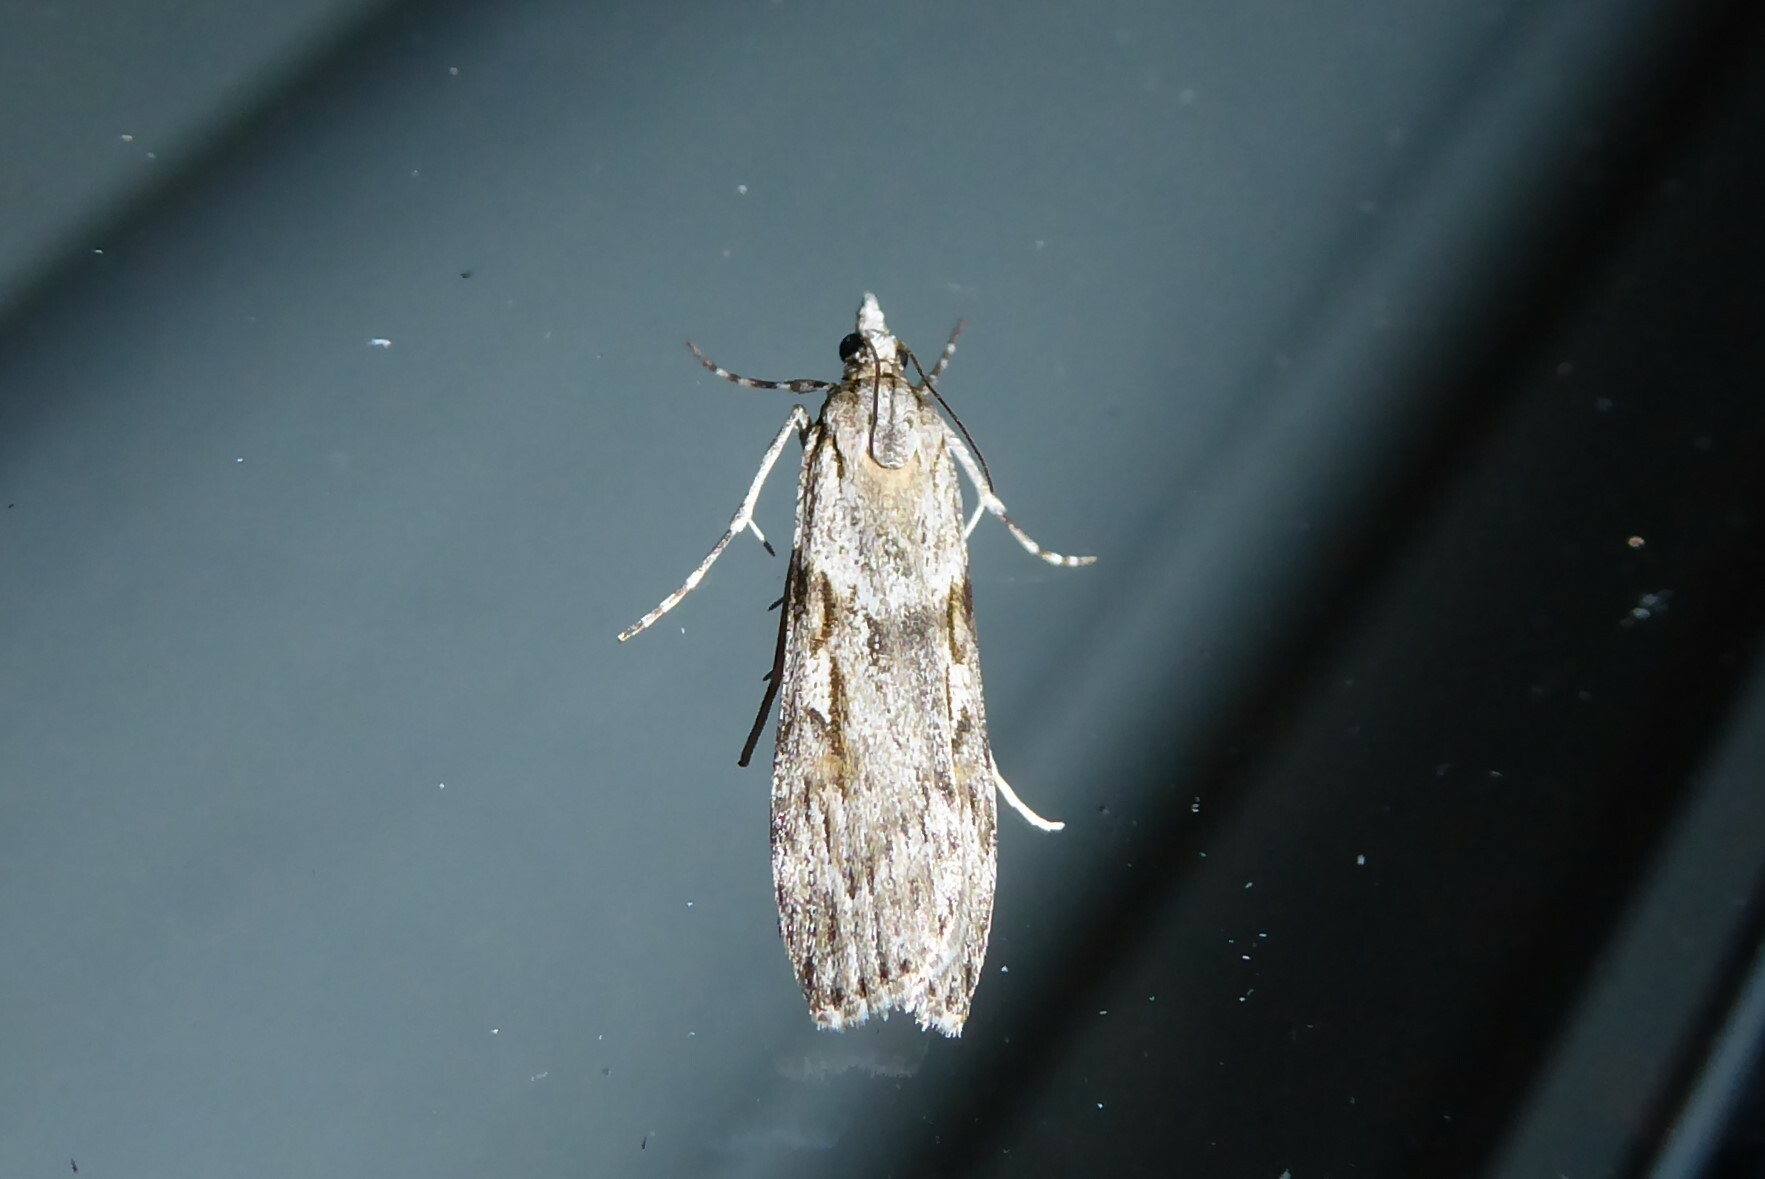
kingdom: Animalia
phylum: Arthropoda
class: Insecta
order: Lepidoptera
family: Crambidae
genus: Scoparia
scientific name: Scoparia halopis
